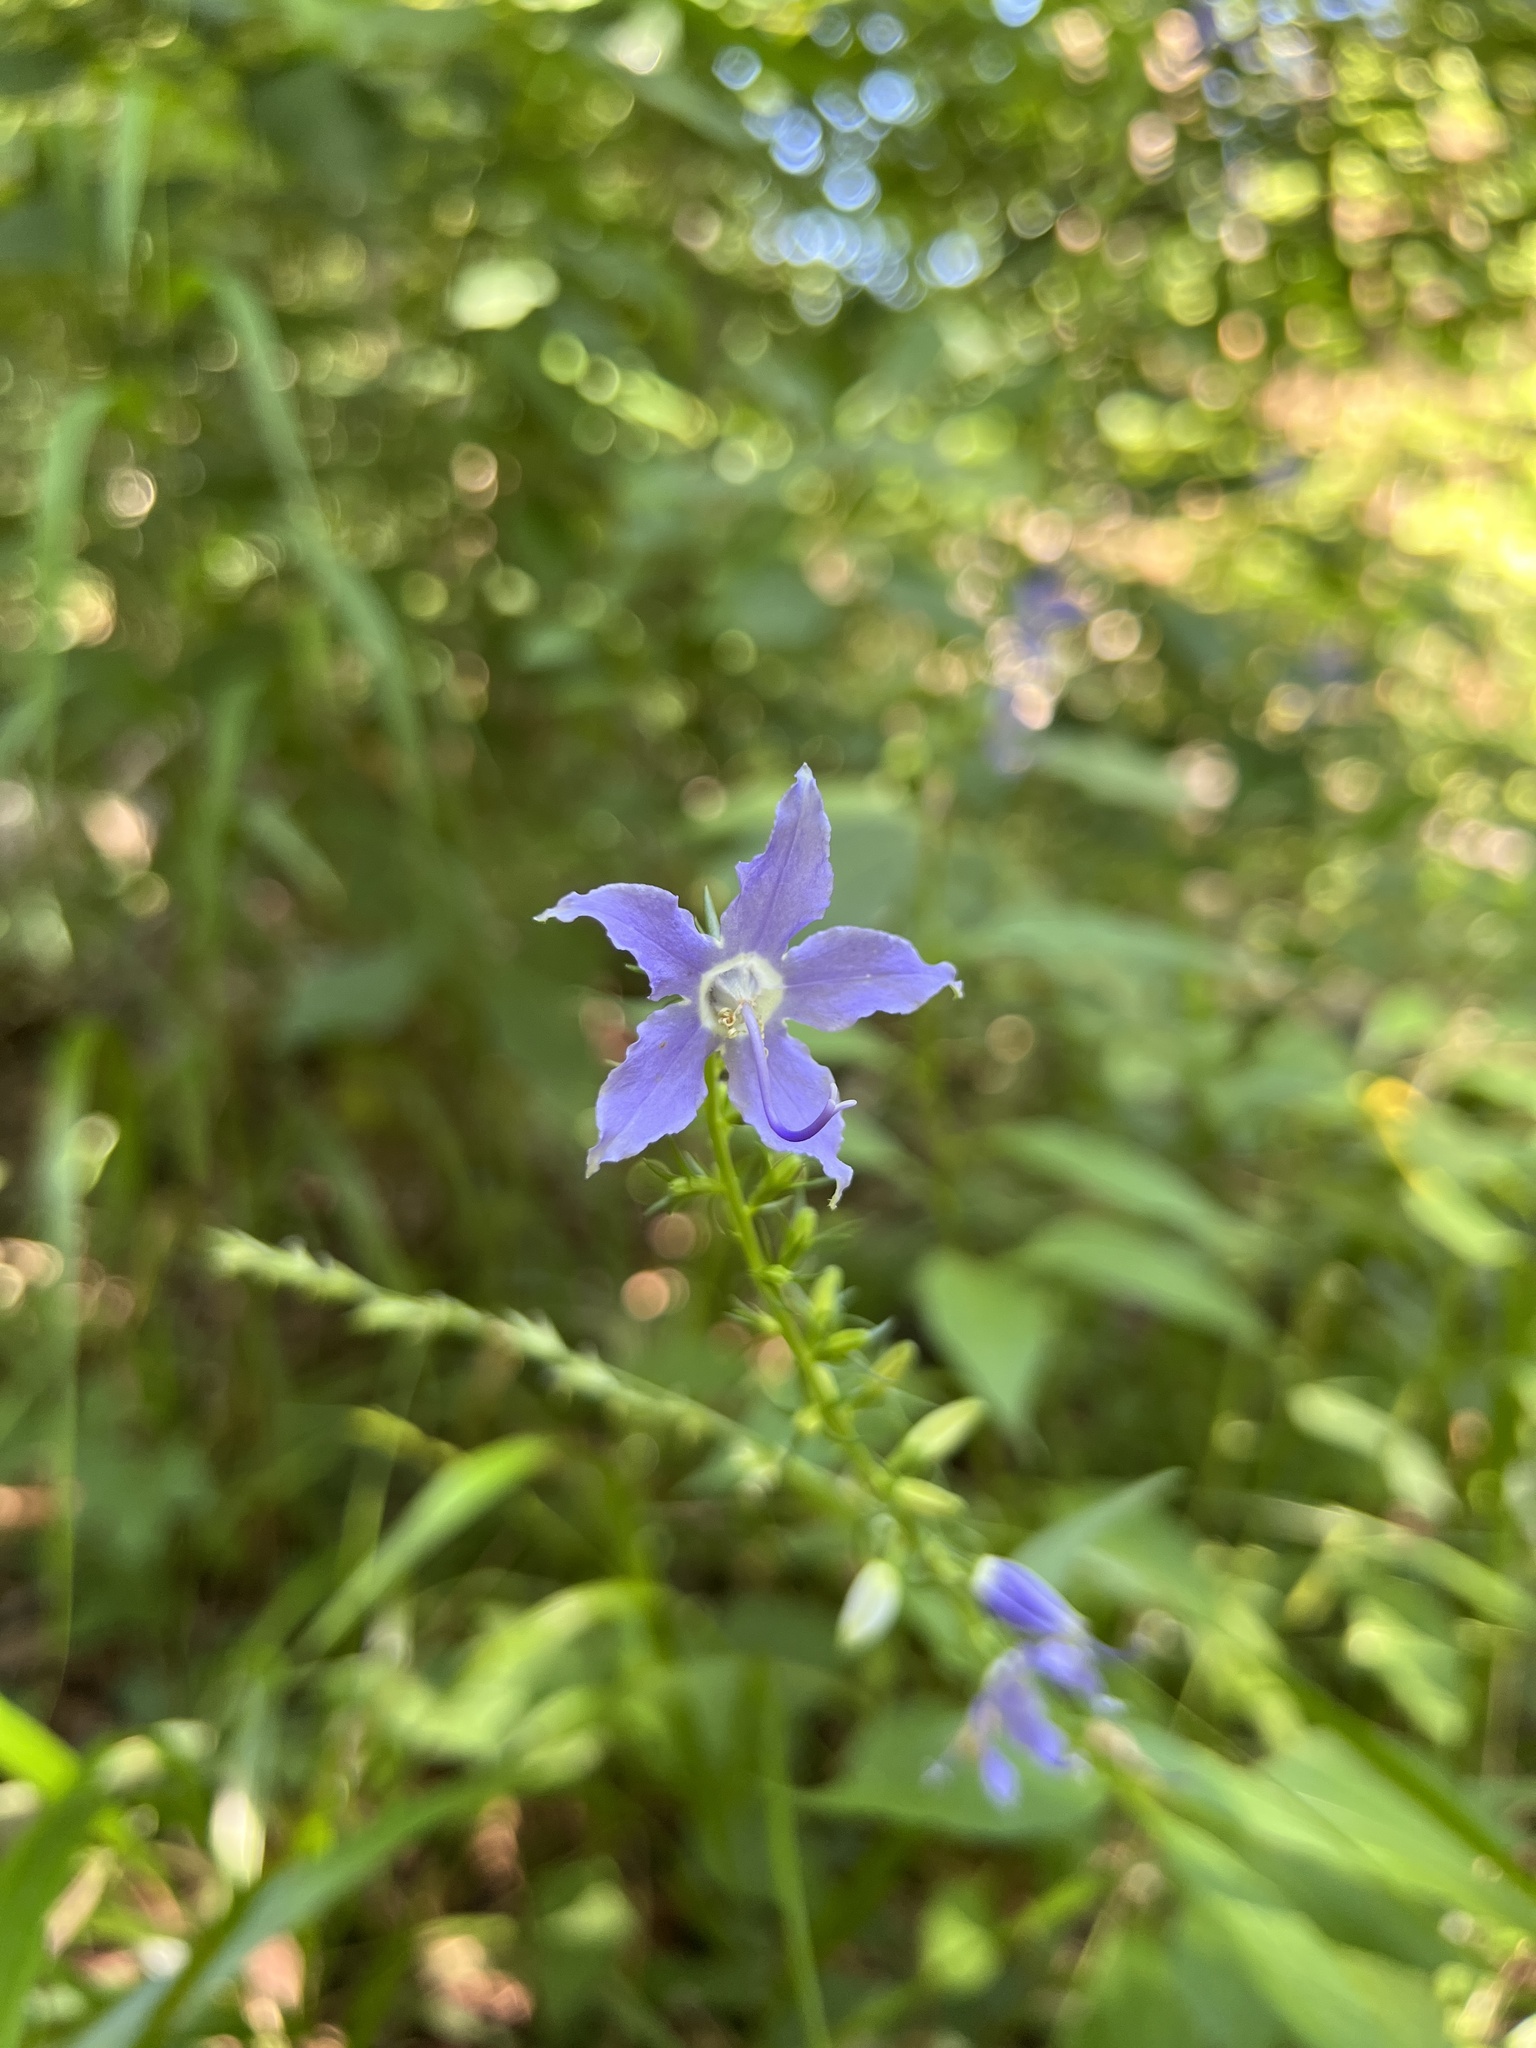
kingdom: Plantae
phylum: Tracheophyta
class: Magnoliopsida
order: Asterales
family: Campanulaceae
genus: Campanulastrum
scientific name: Campanulastrum americanum
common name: American bellflower
